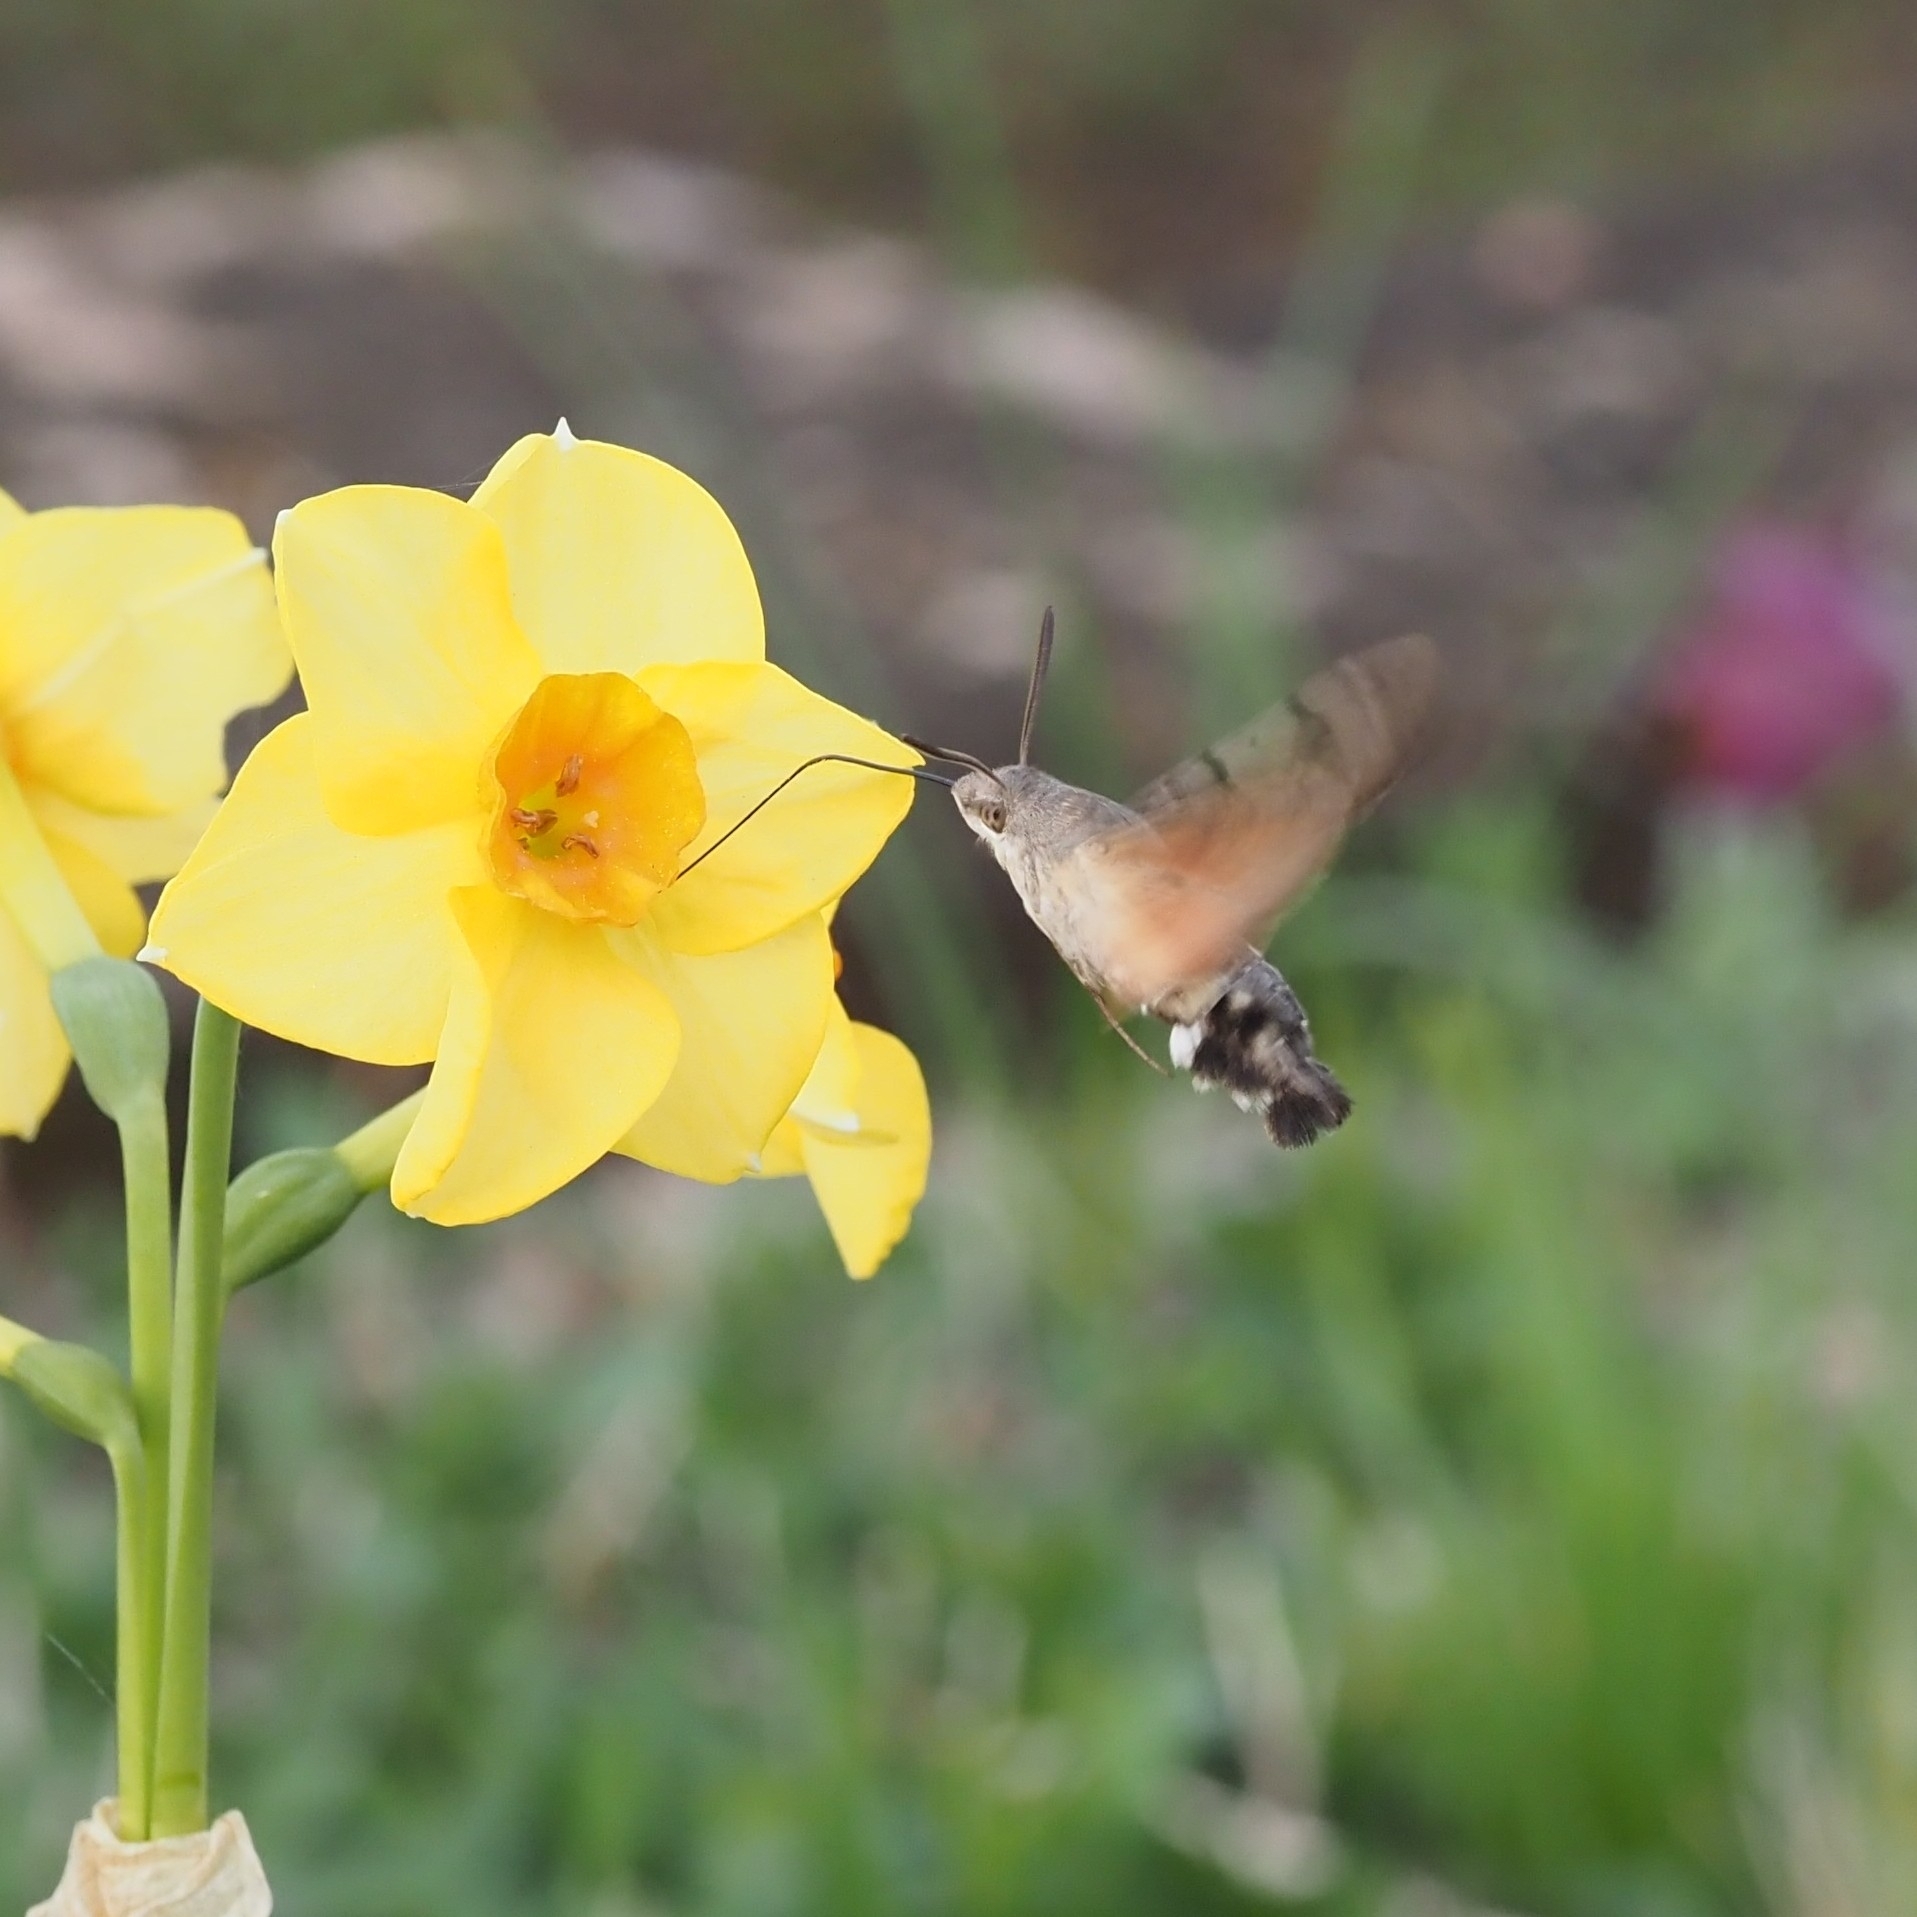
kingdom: Animalia
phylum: Arthropoda
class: Insecta
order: Lepidoptera
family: Sphingidae
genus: Macroglossum
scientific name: Macroglossum stellatarum
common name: Humming-bird hawk-moth
